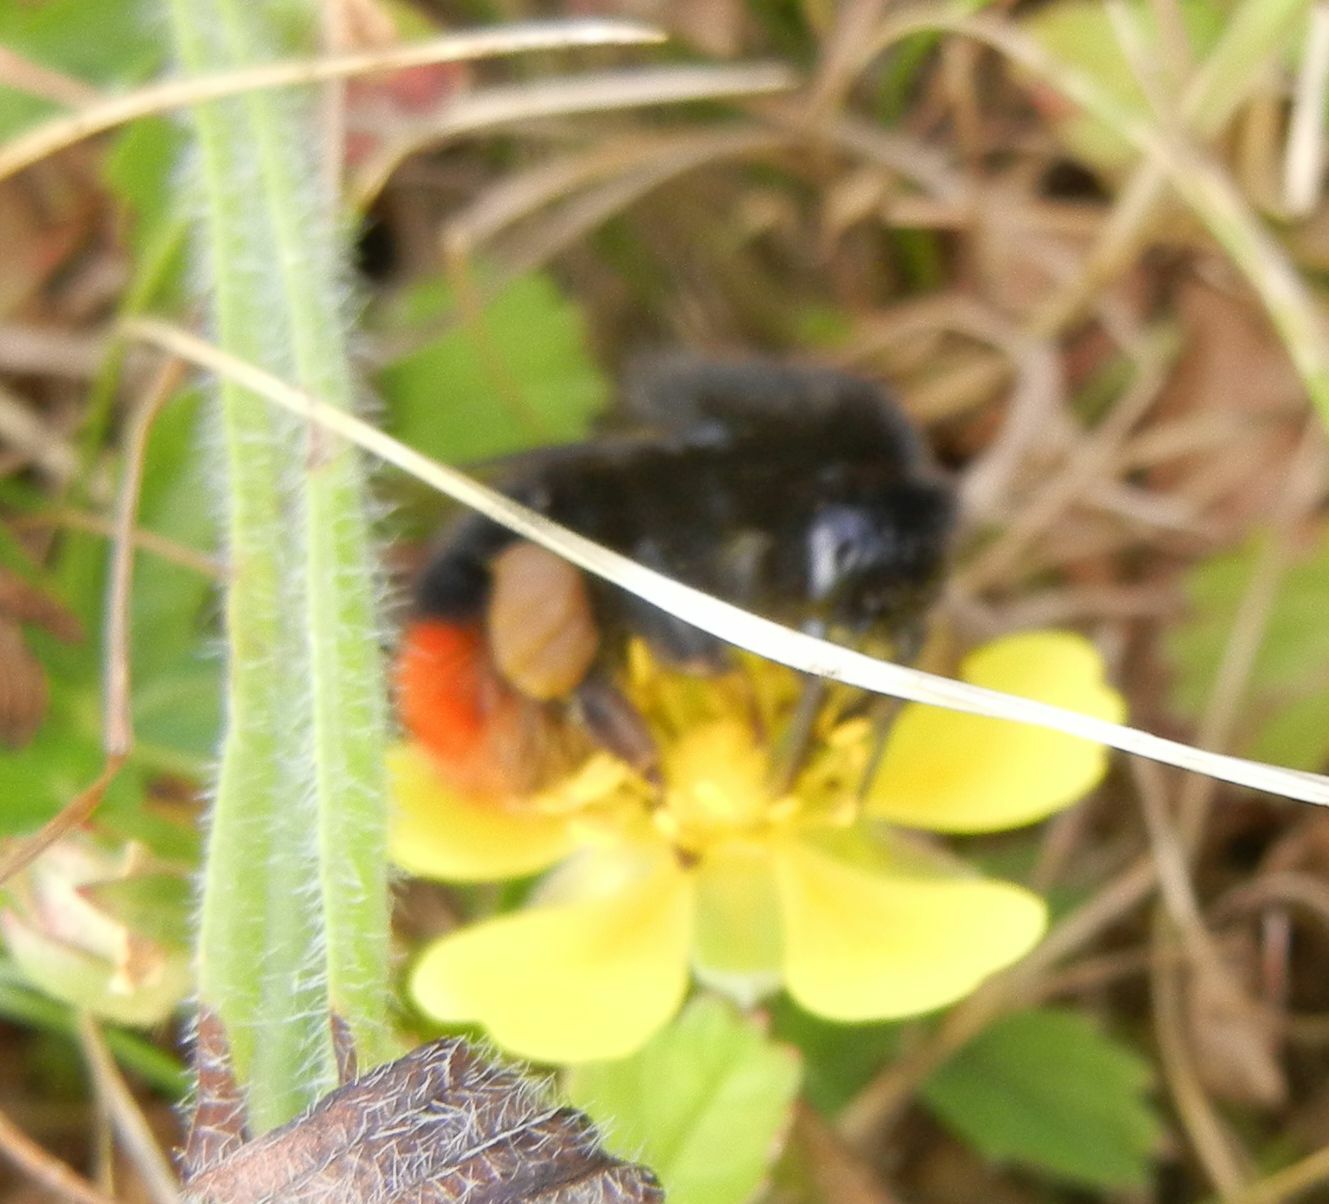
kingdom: Animalia
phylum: Arthropoda
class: Insecta
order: Hymenoptera
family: Apidae
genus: Bombus
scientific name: Bombus lapidarius
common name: Large red-tailed humble-bee
